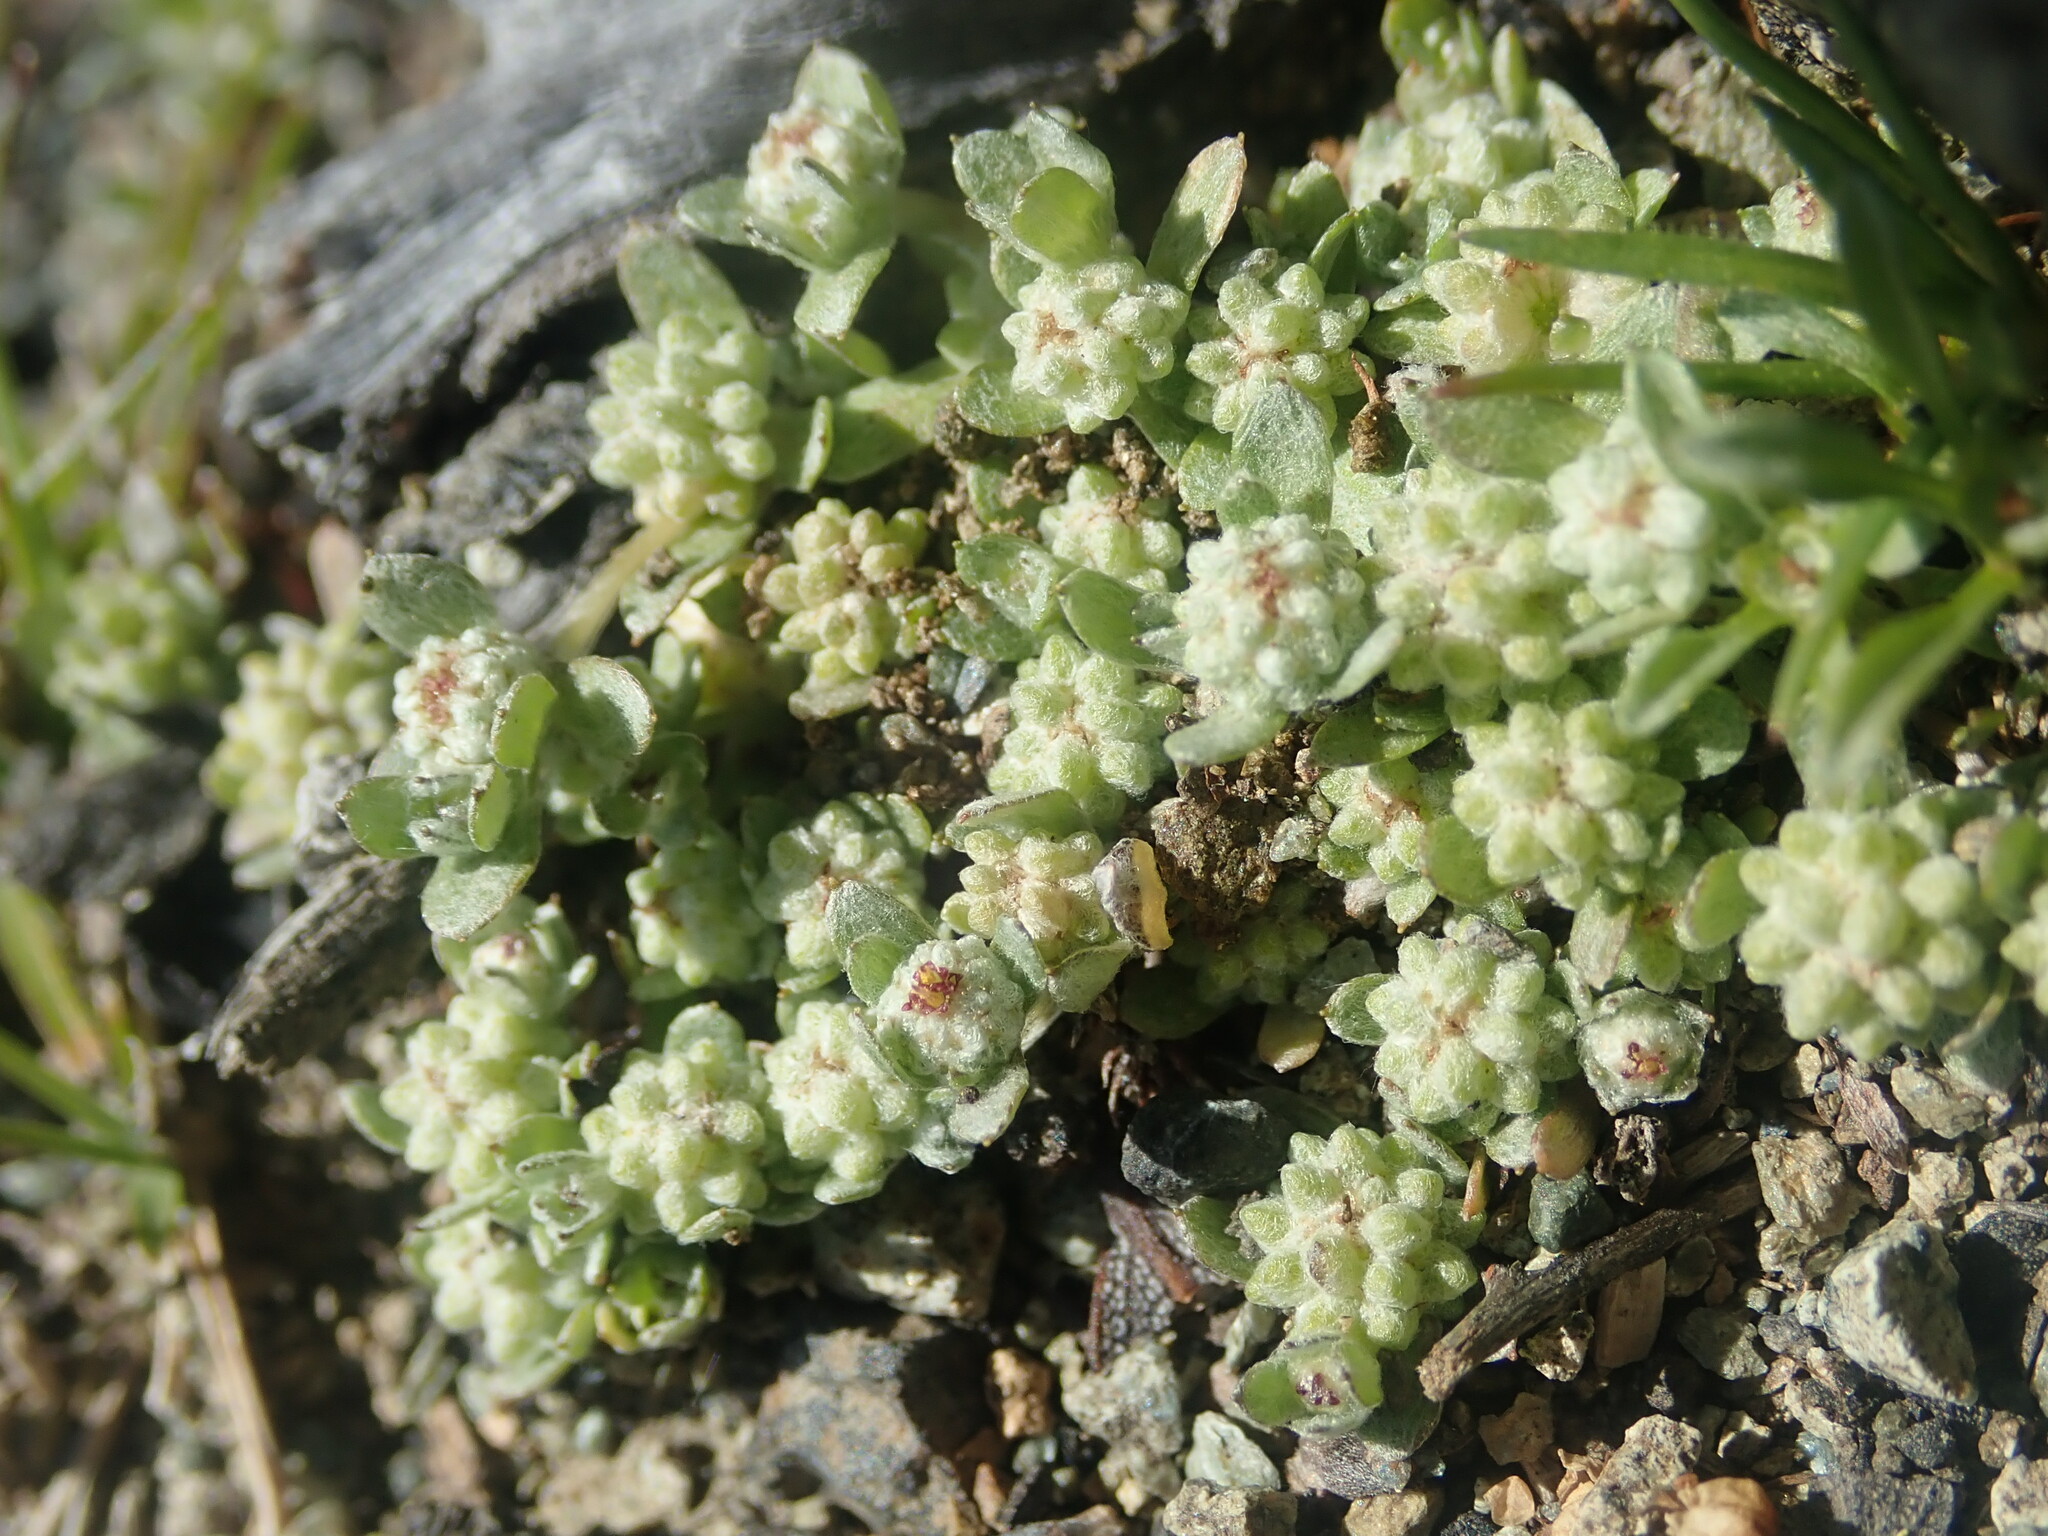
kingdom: Plantae
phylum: Tracheophyta
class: Magnoliopsida
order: Asterales
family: Asteraceae
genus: Psilocarphus
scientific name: Psilocarphus tenellus
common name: Slender woolly-marbles
